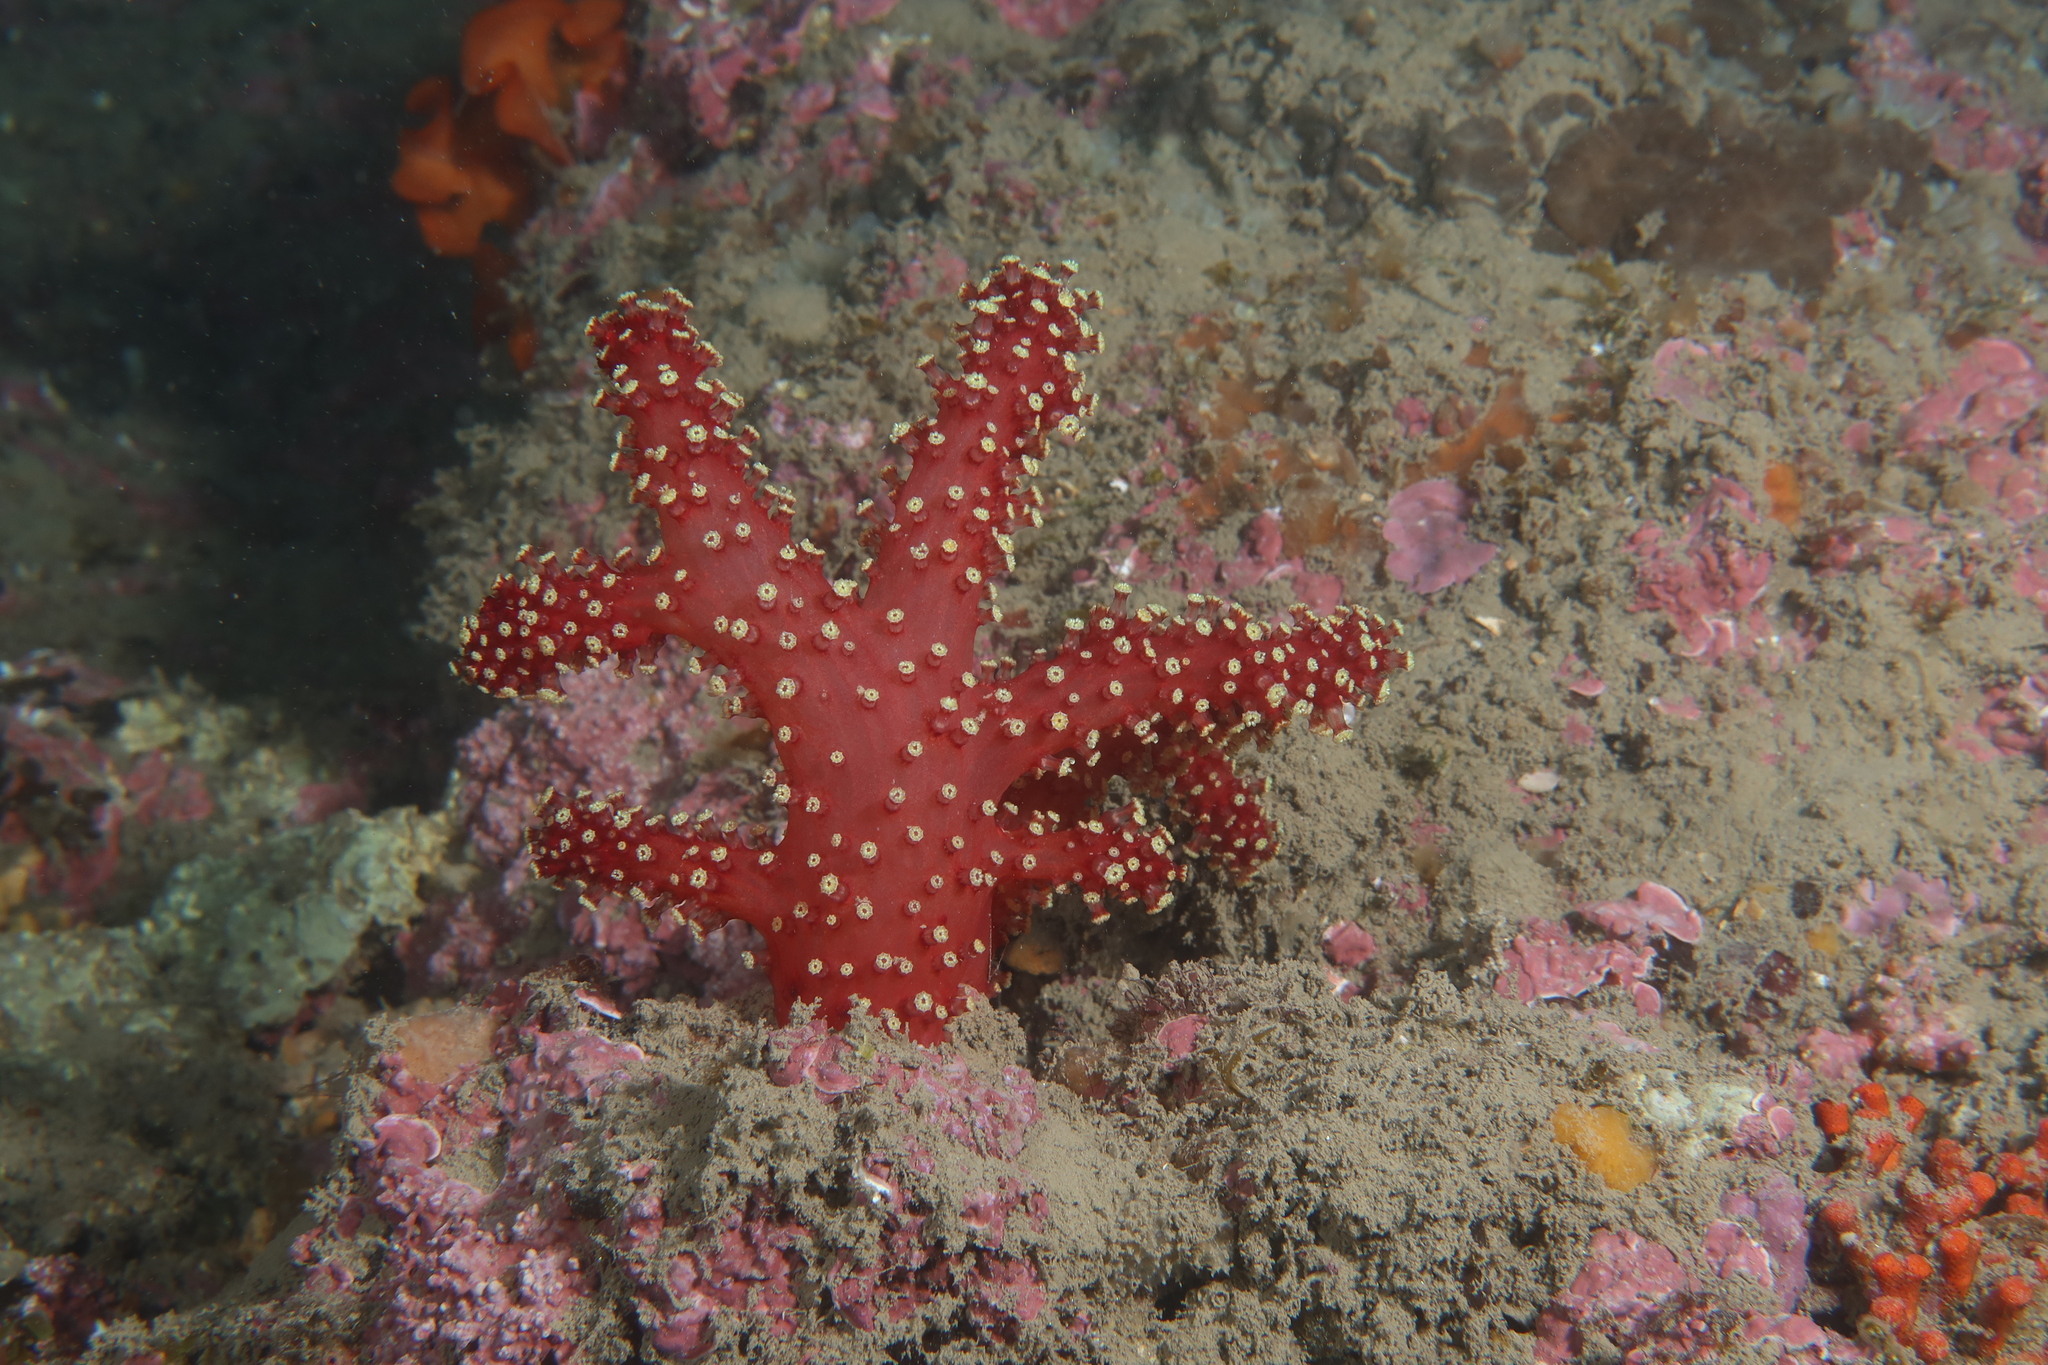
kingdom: Animalia
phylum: Cnidaria
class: Anthozoa
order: Malacalcyonacea
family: Alcyoniidae
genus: Alcyonium
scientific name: Alcyonium acaule
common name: Sea finger
